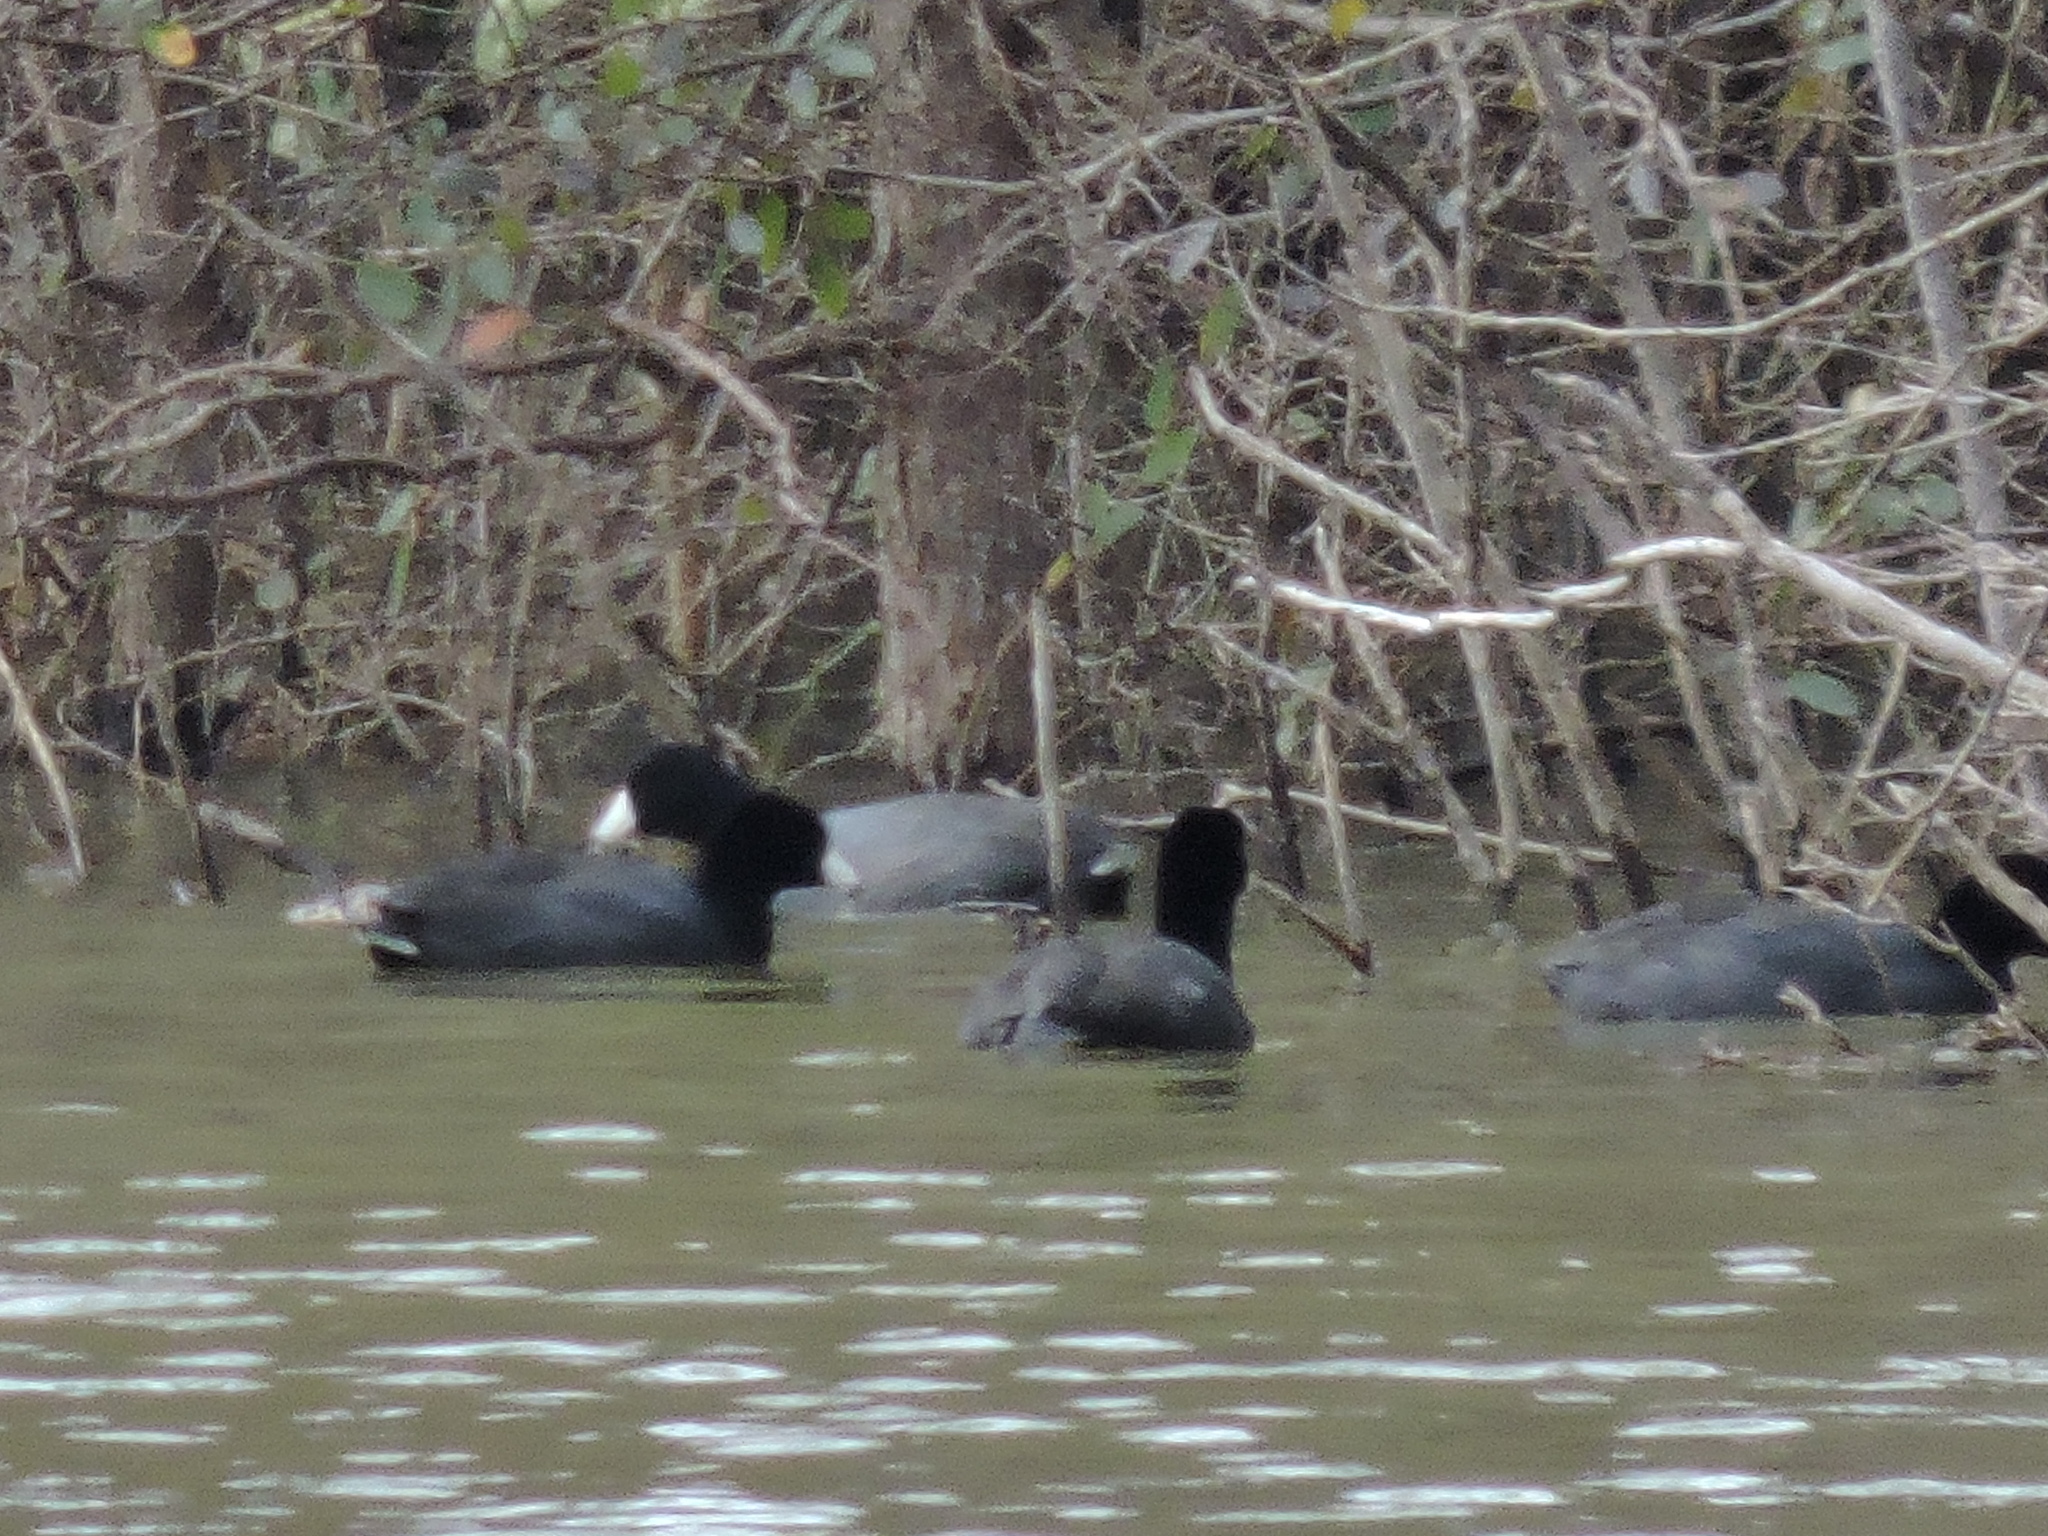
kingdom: Animalia
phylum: Chordata
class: Aves
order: Gruiformes
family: Rallidae
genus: Fulica
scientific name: Fulica americana
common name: American coot
